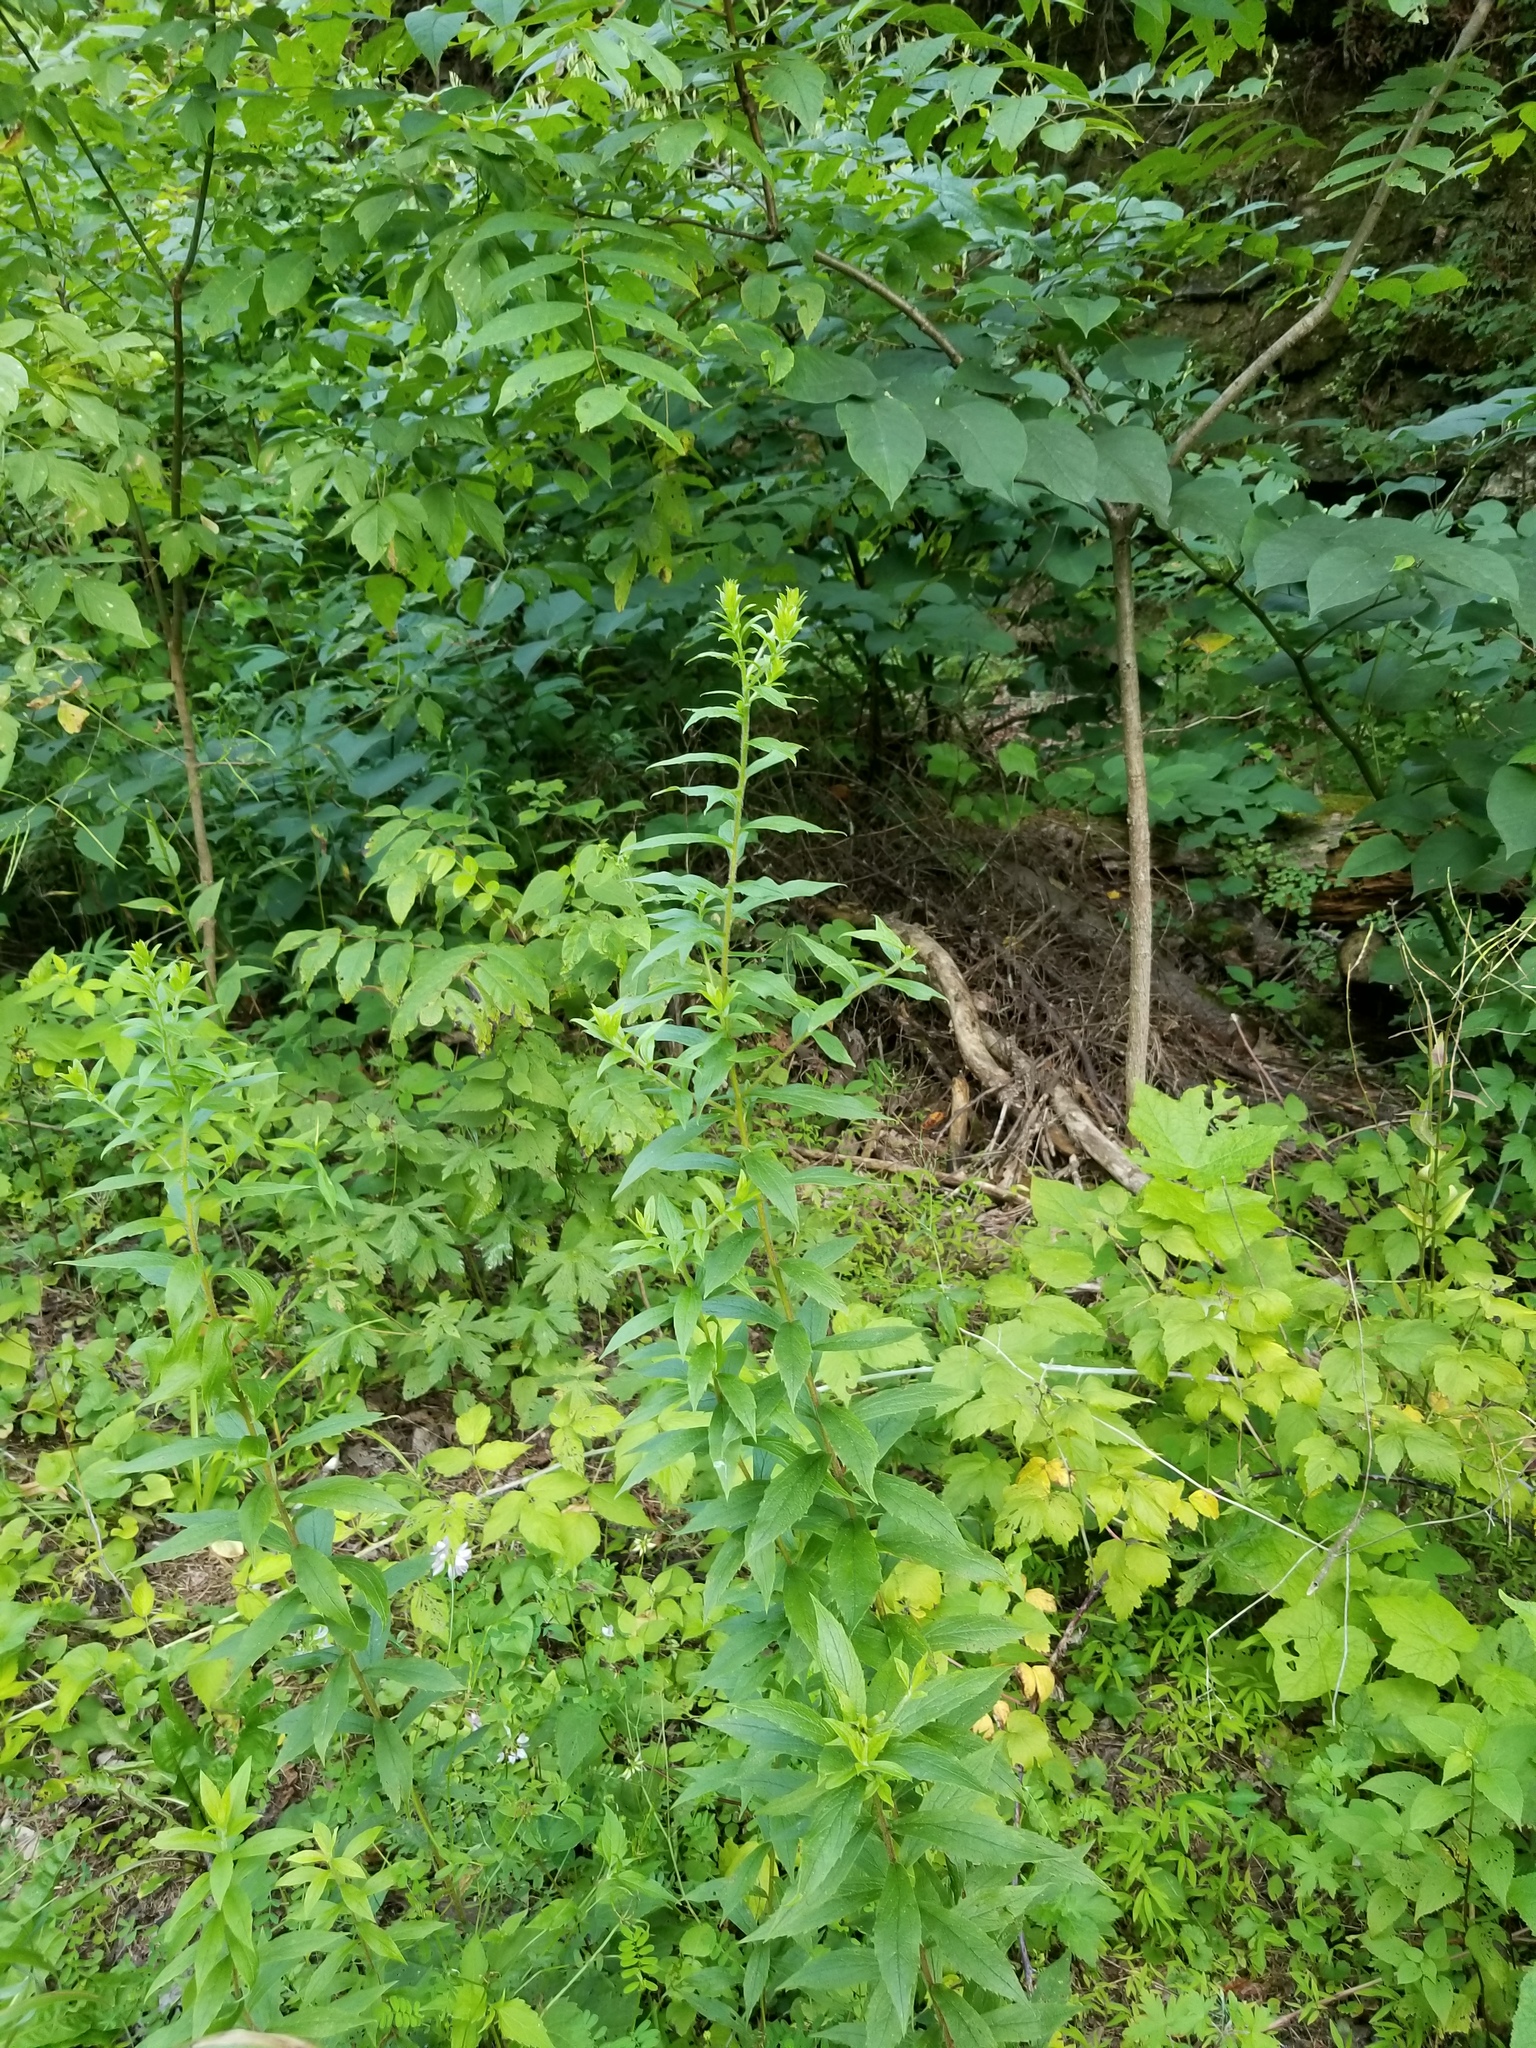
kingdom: Plantae
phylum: Tracheophyta
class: Magnoliopsida
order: Asterales
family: Asteraceae
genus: Solidago
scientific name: Solidago rugosa
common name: Rough-stemmed goldenrod
